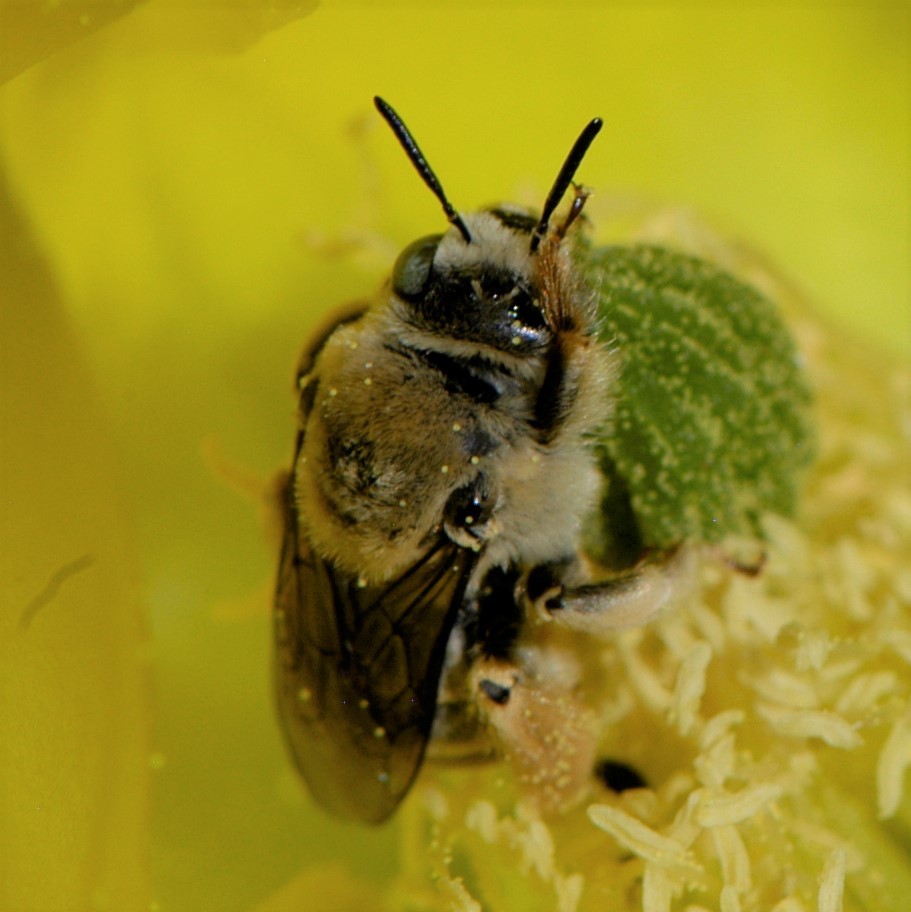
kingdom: Animalia
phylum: Arthropoda
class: Insecta
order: Hymenoptera
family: Apidae
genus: Diadasia
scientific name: Diadasia
